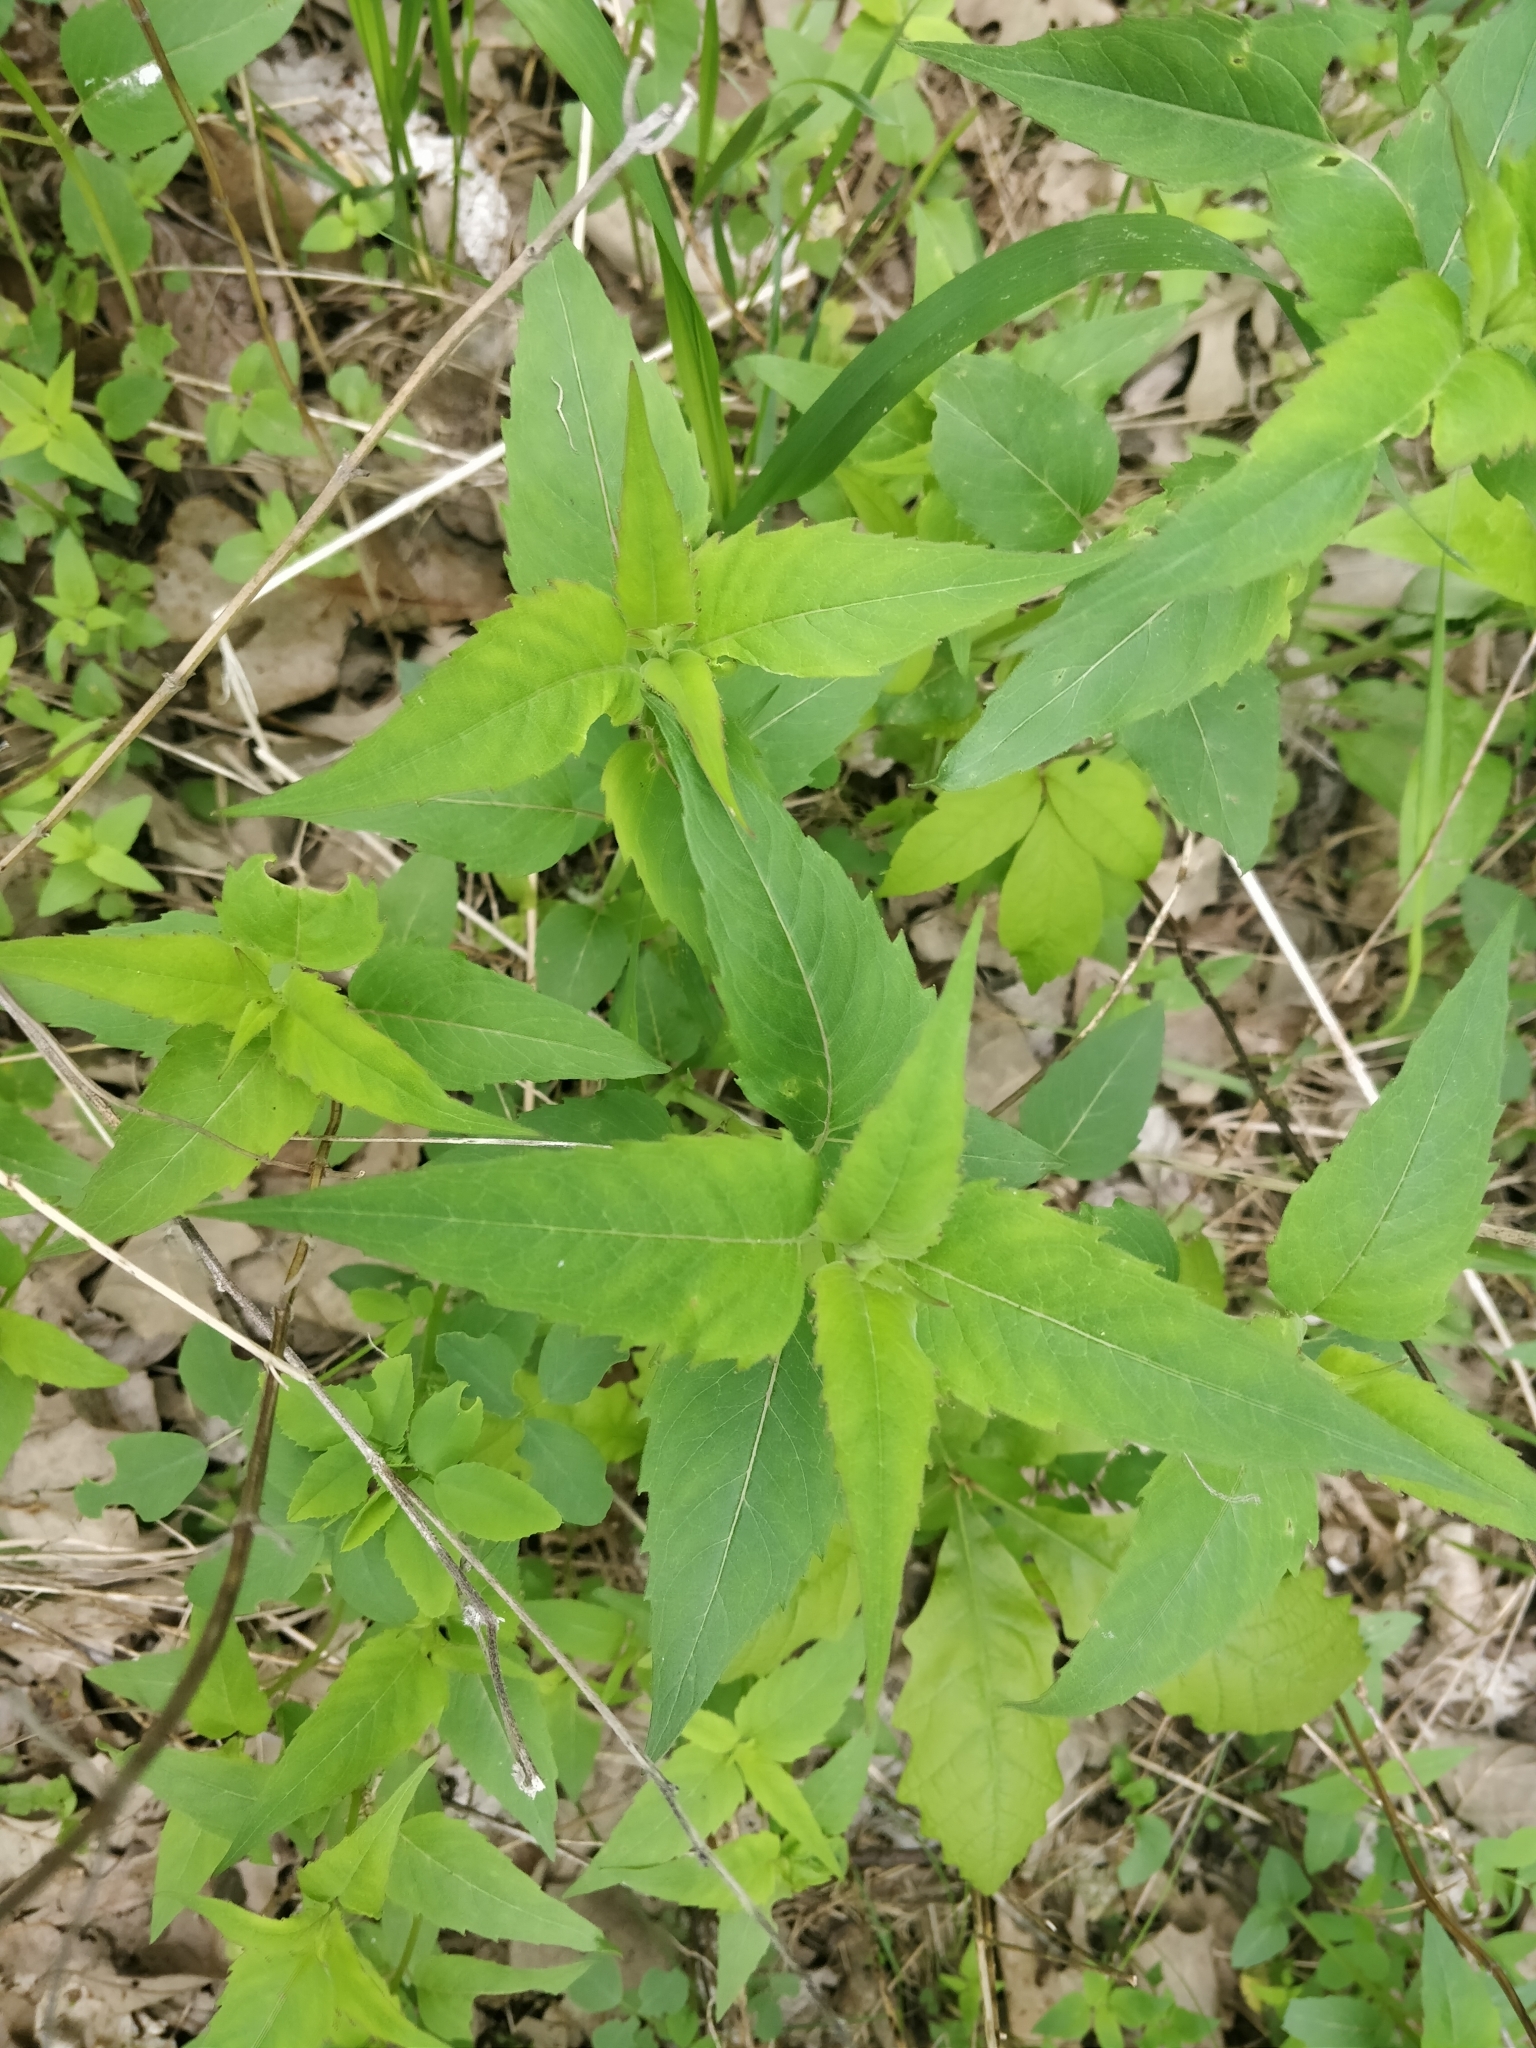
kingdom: Plantae
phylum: Tracheophyta
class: Magnoliopsida
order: Lamiales
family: Lamiaceae
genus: Monarda
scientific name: Monarda fistulosa
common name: Purple beebalm
